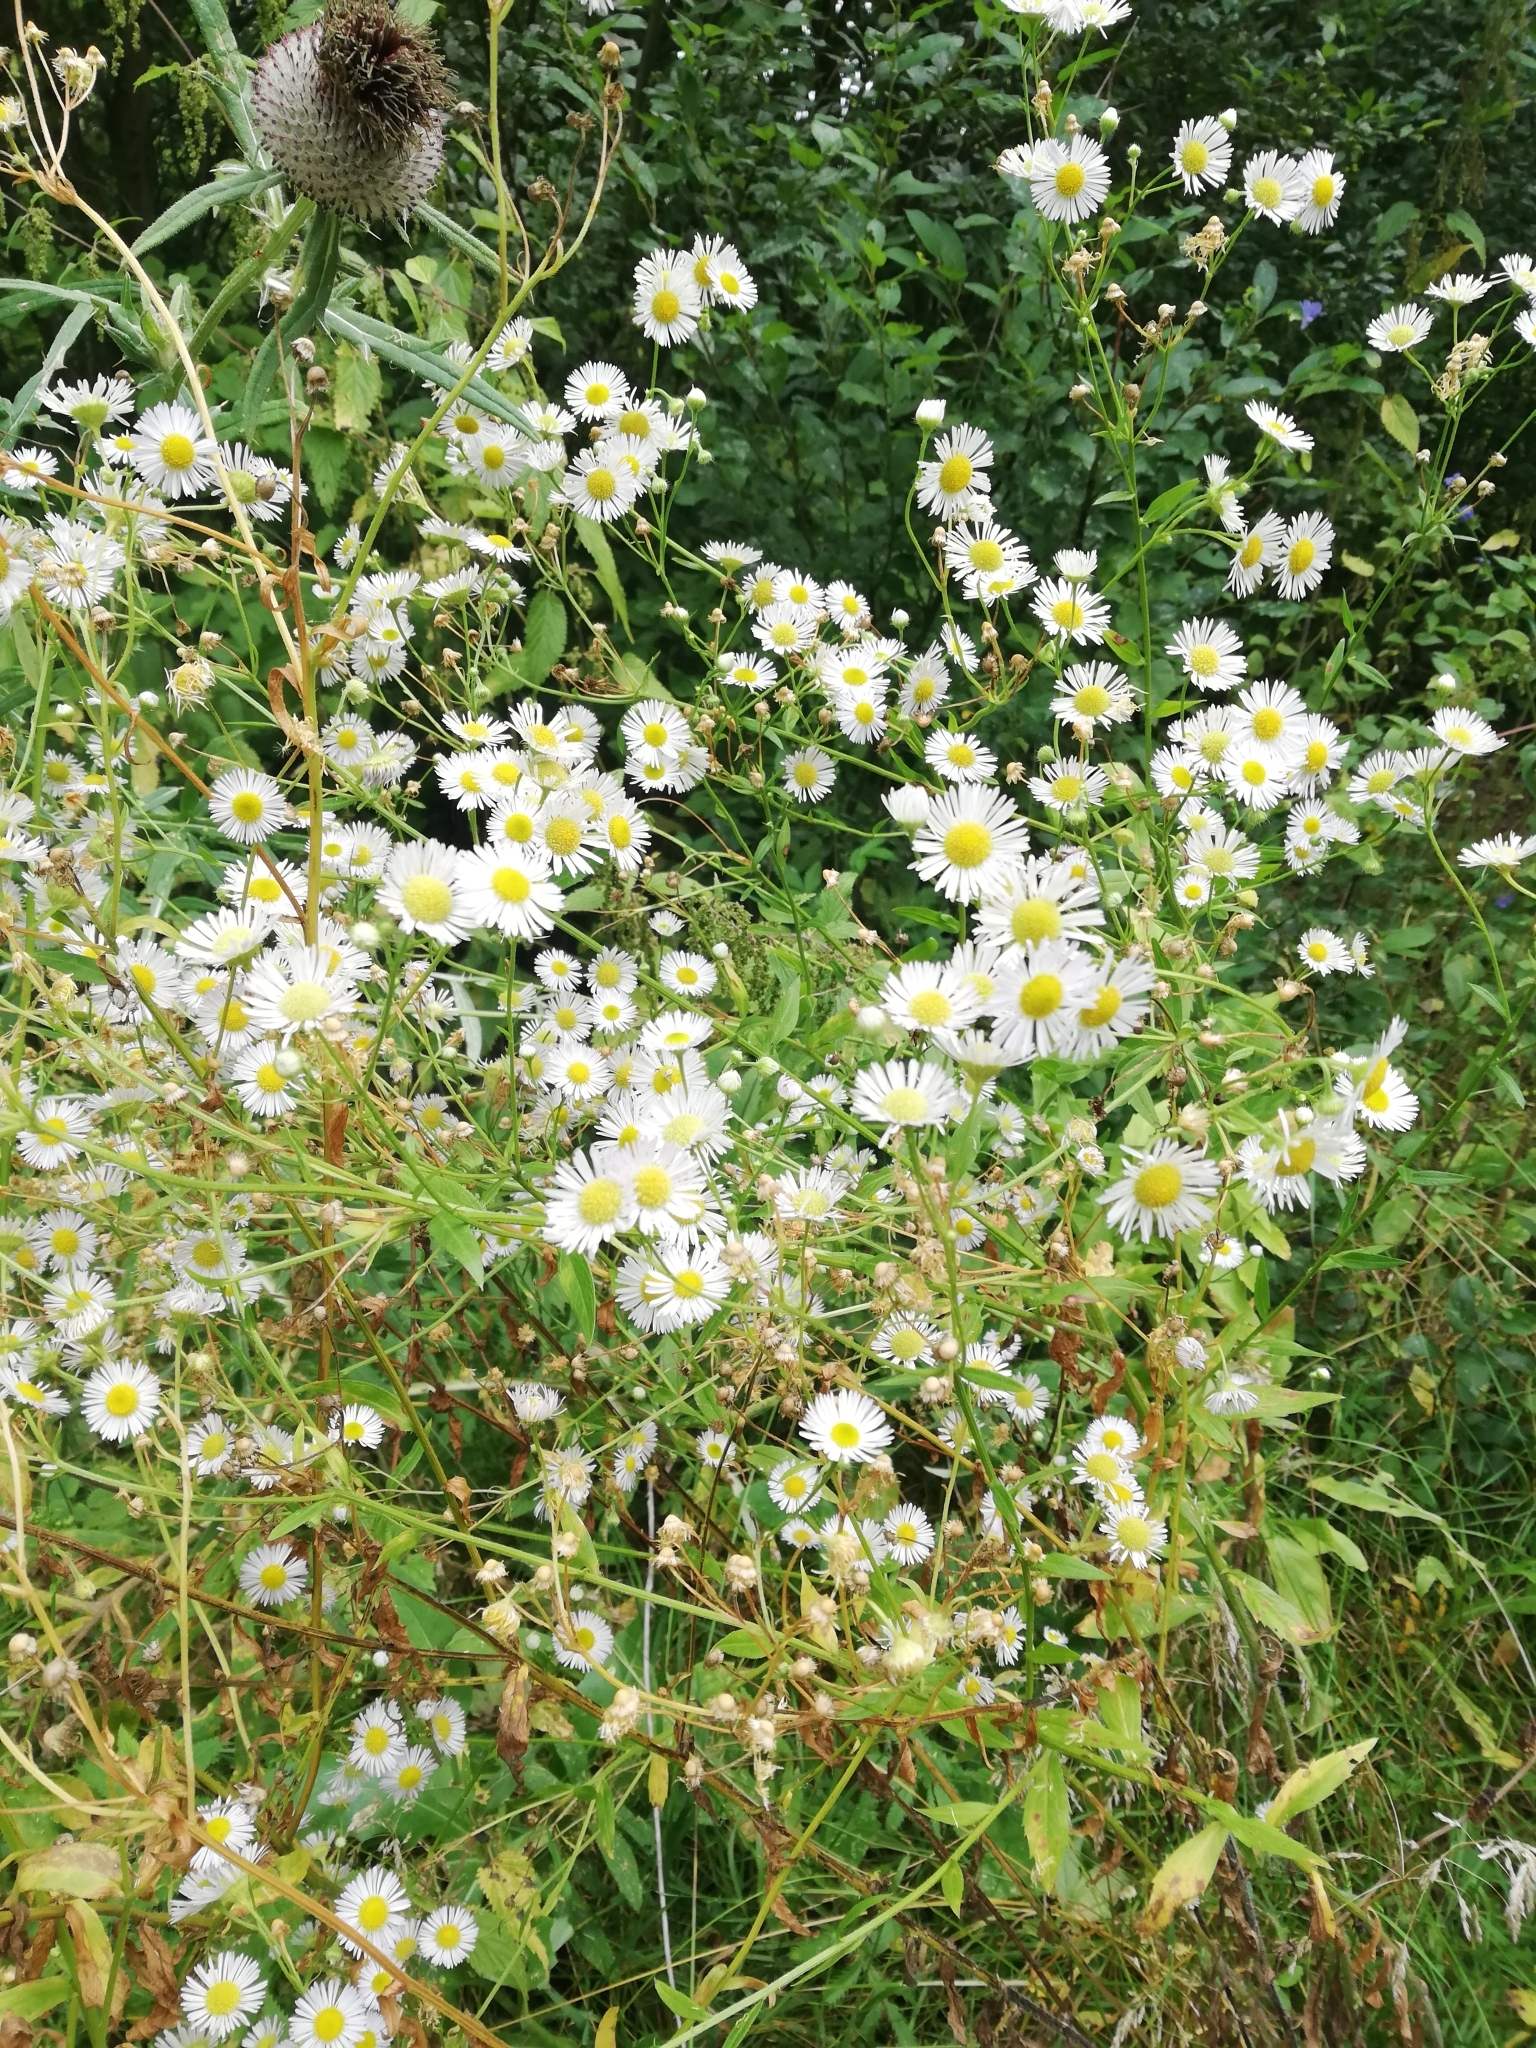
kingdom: Plantae
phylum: Tracheophyta
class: Magnoliopsida
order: Asterales
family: Asteraceae
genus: Erigeron
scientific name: Erigeron annuus
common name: Tall fleabane
